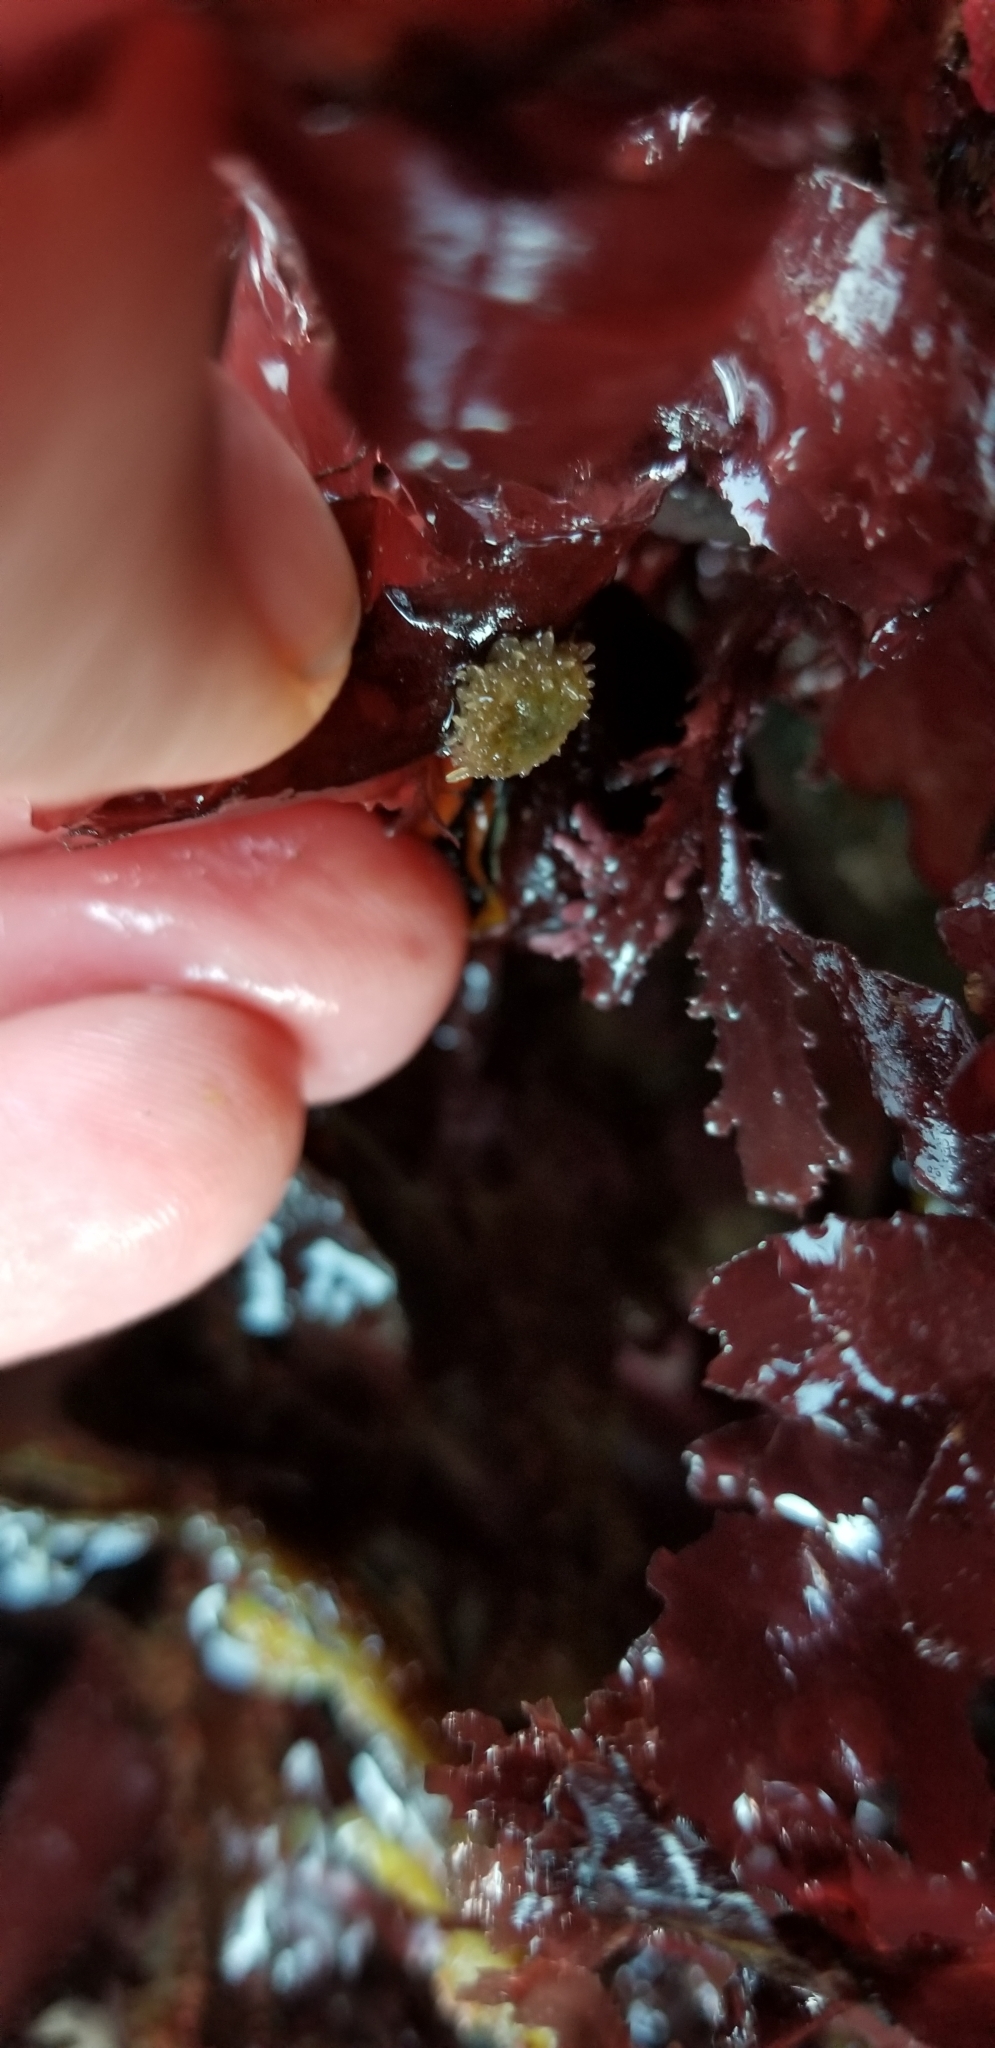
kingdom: Animalia
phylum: Echinodermata
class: Echinoidea
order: Camarodonta
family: Strongylocentrotidae
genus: Strongylocentrotus
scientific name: Strongylocentrotus purpuratus
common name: Purple sea urchin
